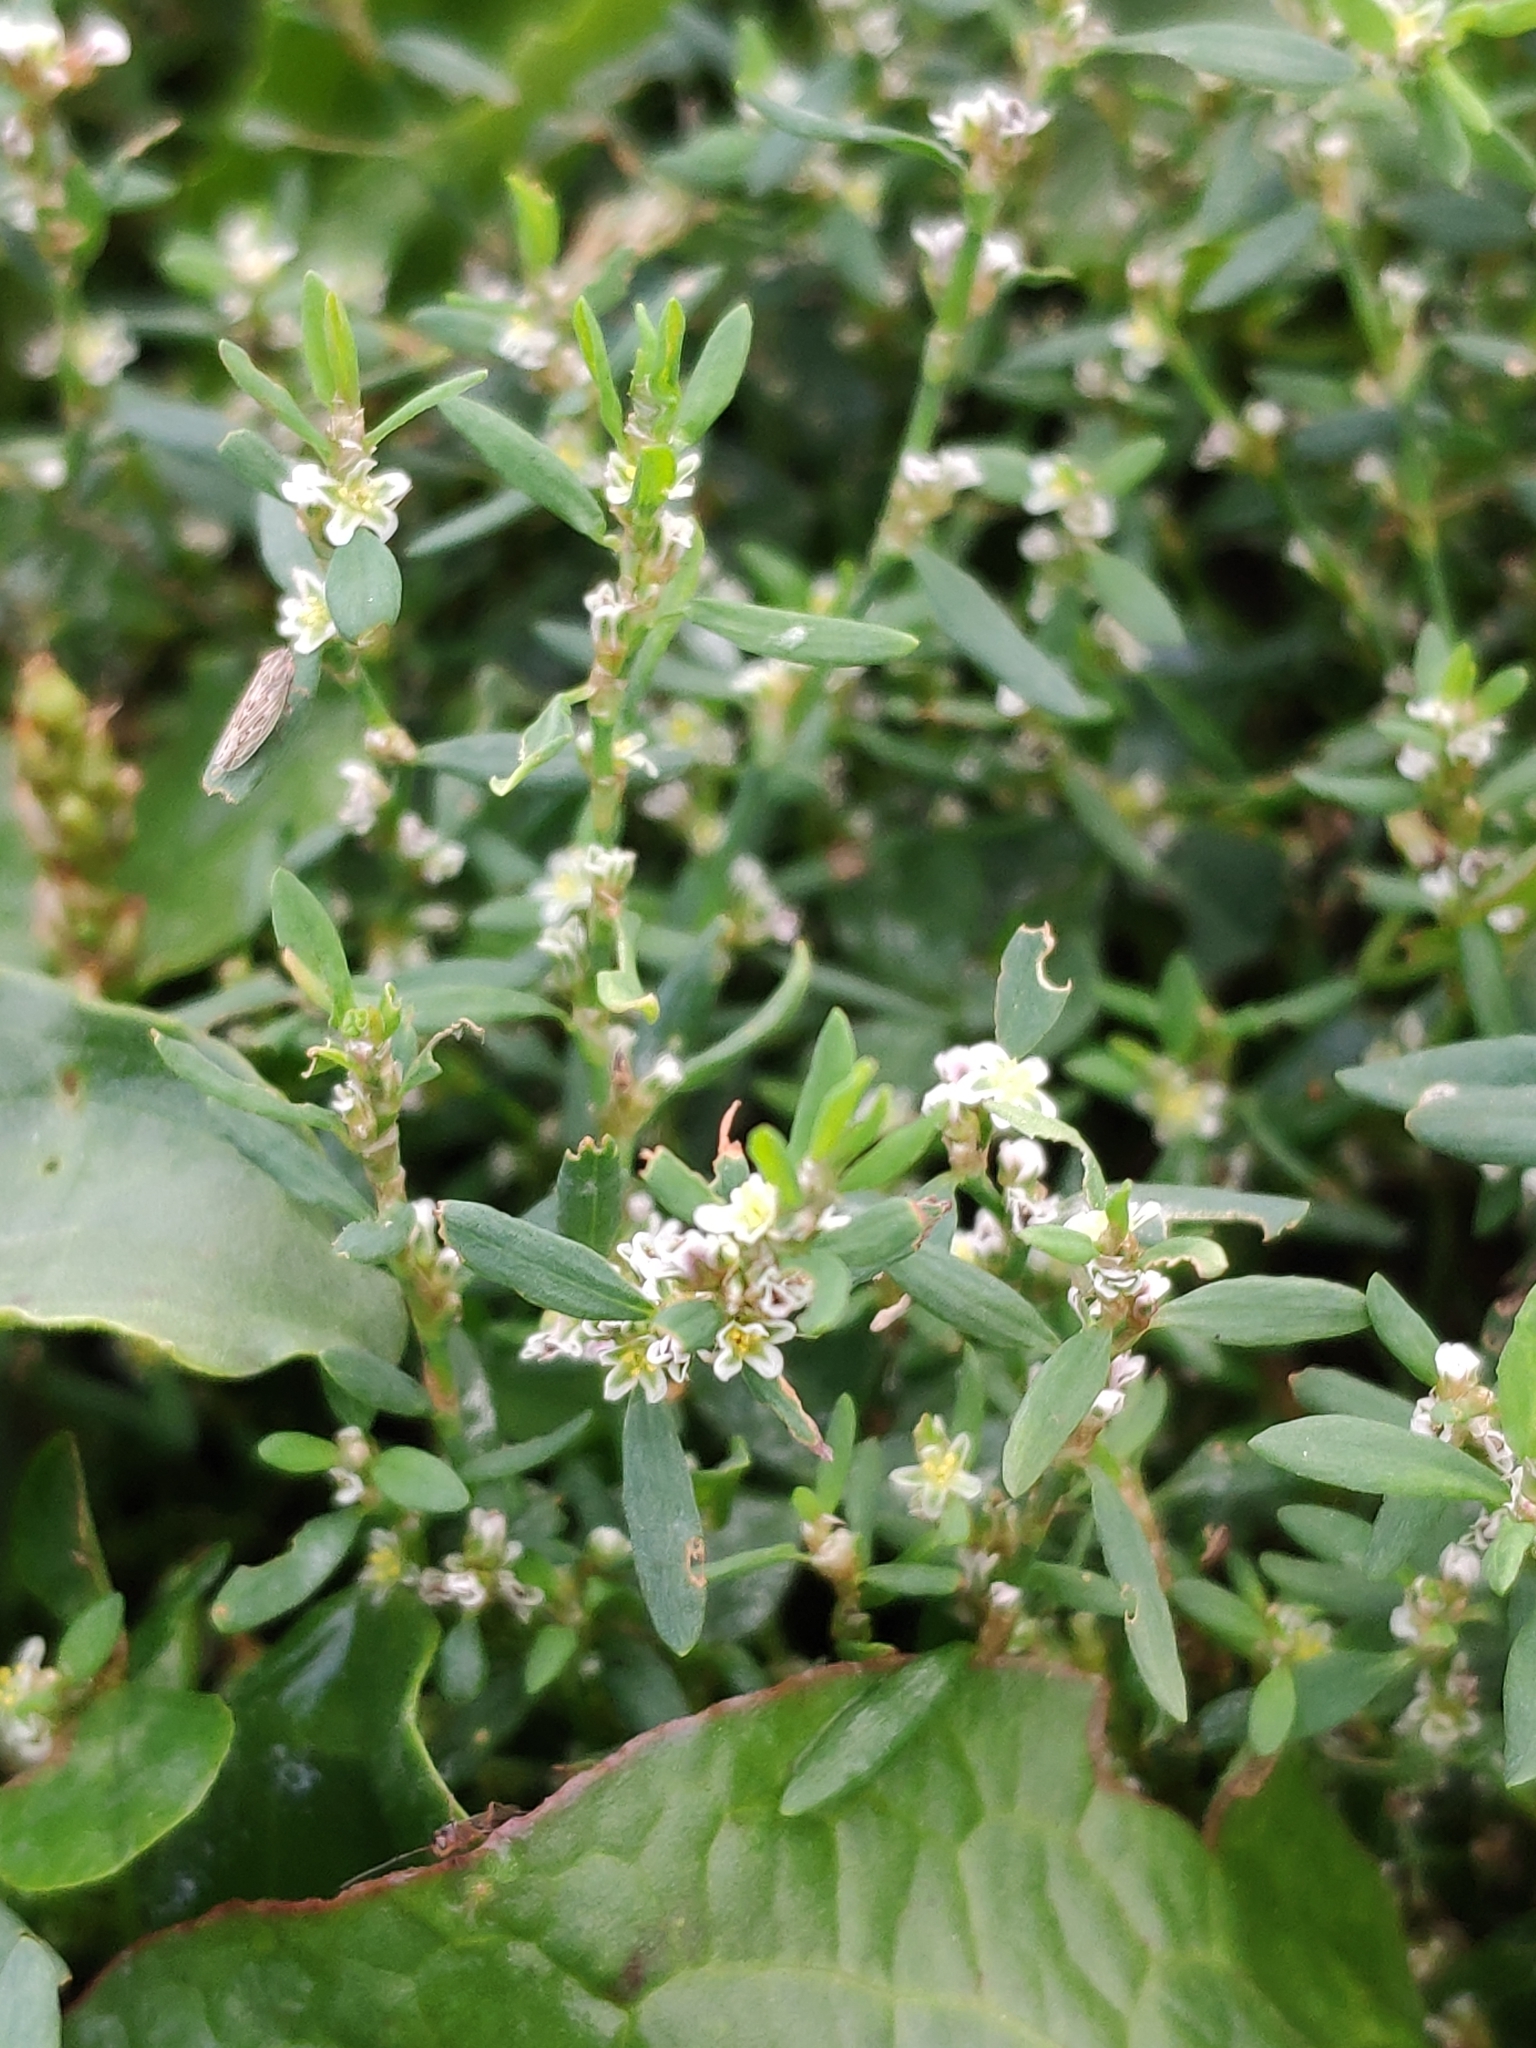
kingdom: Plantae
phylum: Tracheophyta
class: Magnoliopsida
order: Caryophyllales
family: Polygonaceae
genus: Polygonum
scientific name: Polygonum aviculare
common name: Prostrate knotweed
